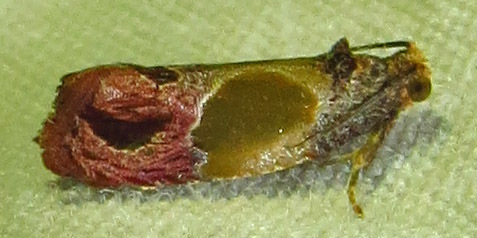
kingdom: Animalia
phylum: Arthropoda
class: Insecta
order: Lepidoptera
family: Tortricidae
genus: Eumarozia
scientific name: Eumarozia malachitana
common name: Sculptured moth
